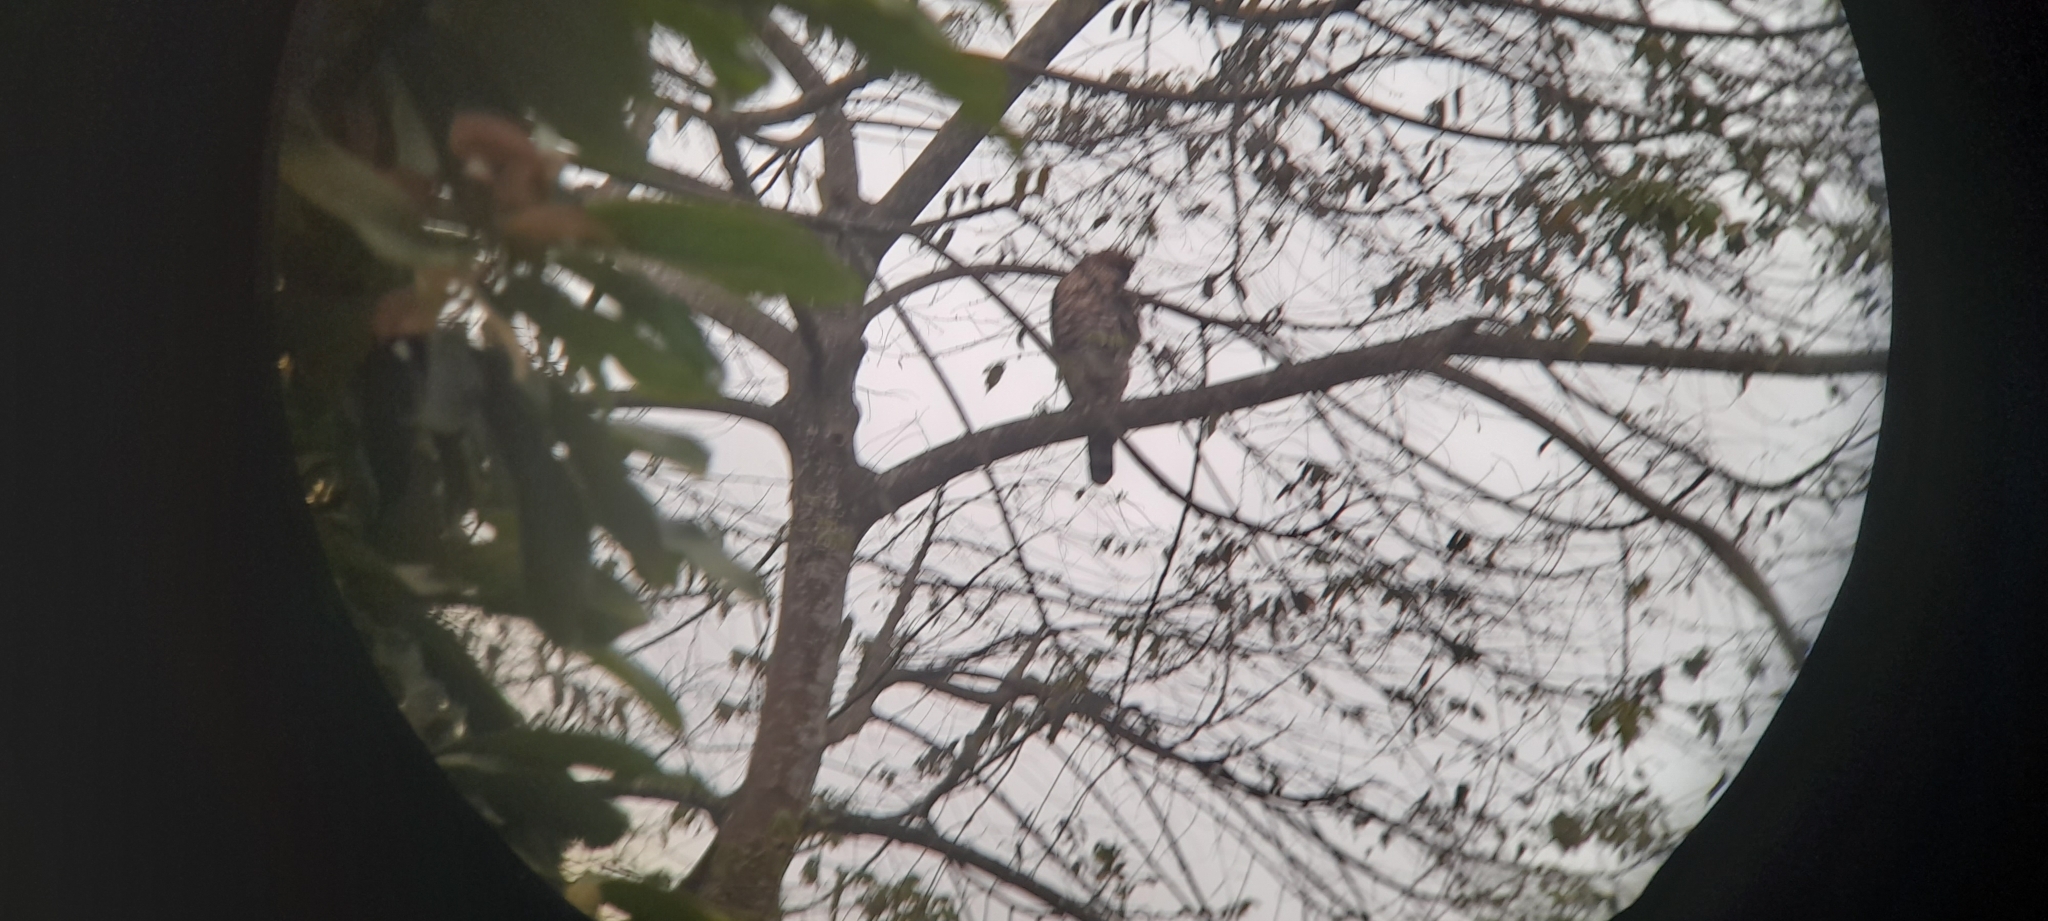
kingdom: Animalia
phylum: Chordata
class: Aves
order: Accipitriformes
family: Accipitridae
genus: Nisaetus
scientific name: Nisaetus kelaarti
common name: Legge's hawk-eagle
